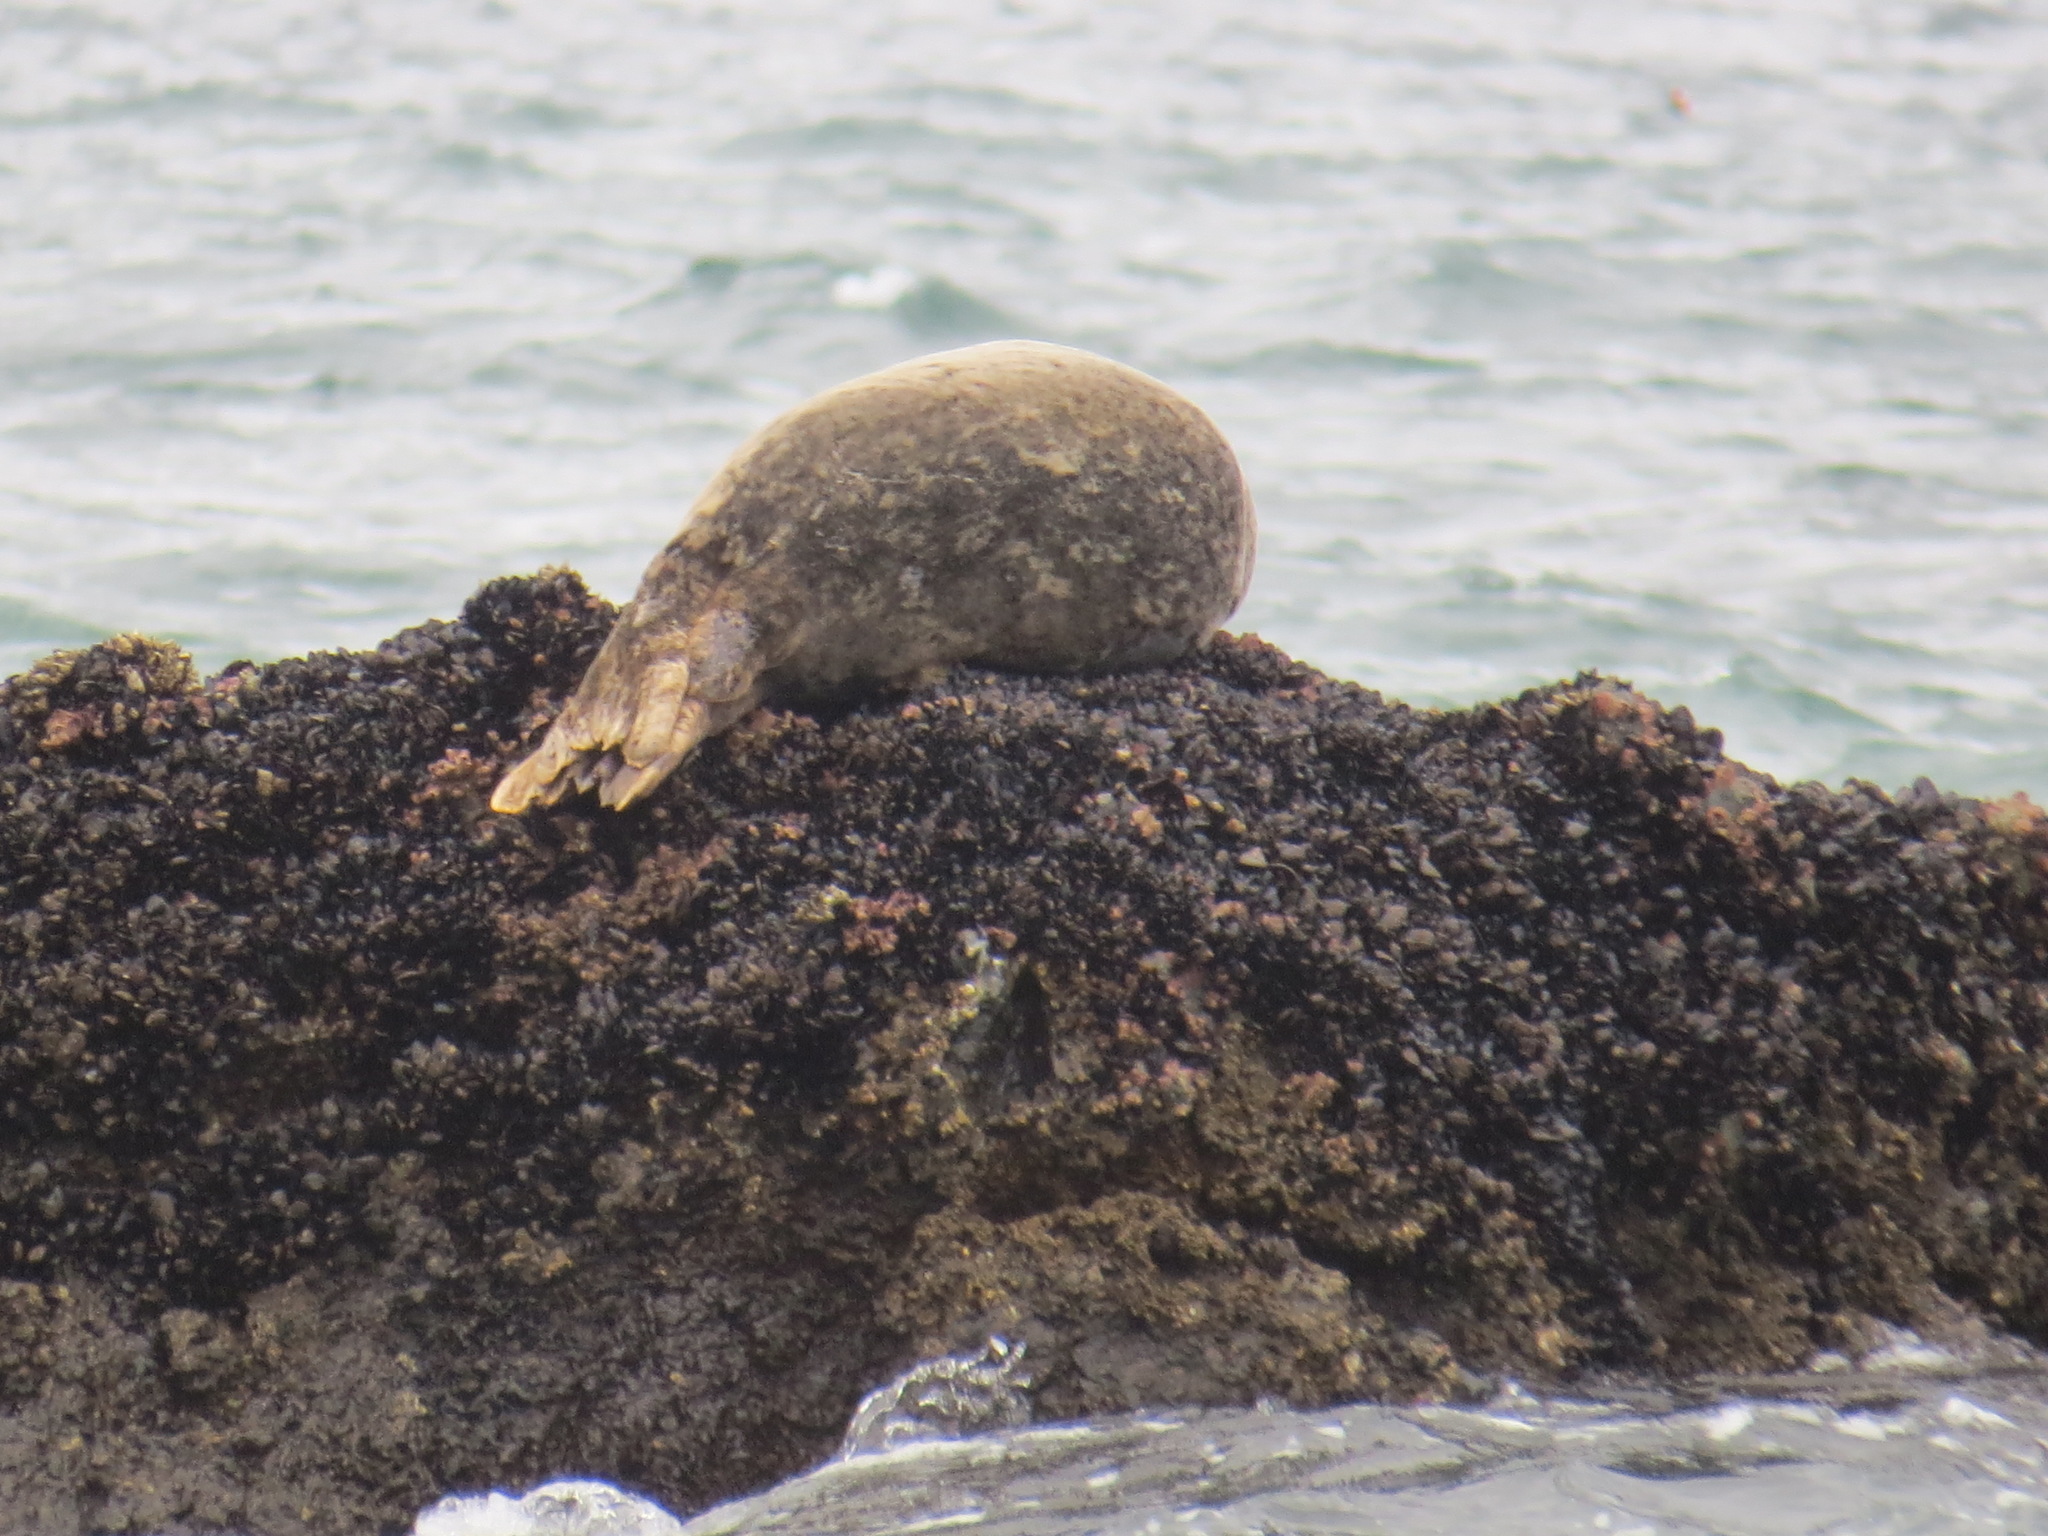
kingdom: Animalia
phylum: Chordata
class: Mammalia
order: Carnivora
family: Phocidae
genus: Phoca
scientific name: Phoca vitulina
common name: Harbor seal
